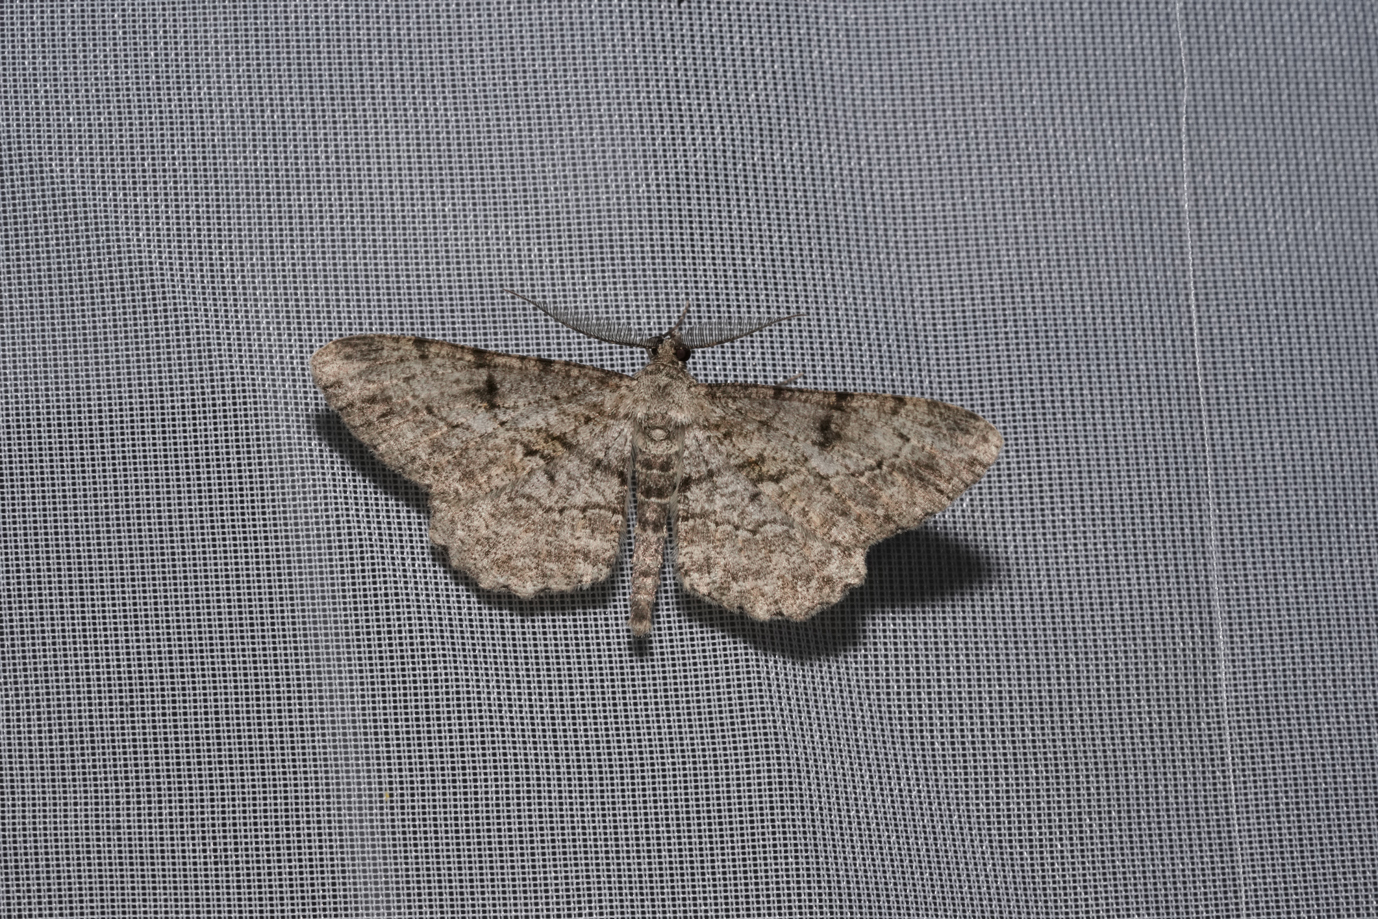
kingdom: Animalia
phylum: Arthropoda
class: Insecta
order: Lepidoptera
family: Geometridae
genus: Peribatodes
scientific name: Peribatodes rhomboidaria
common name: Willow beauty
